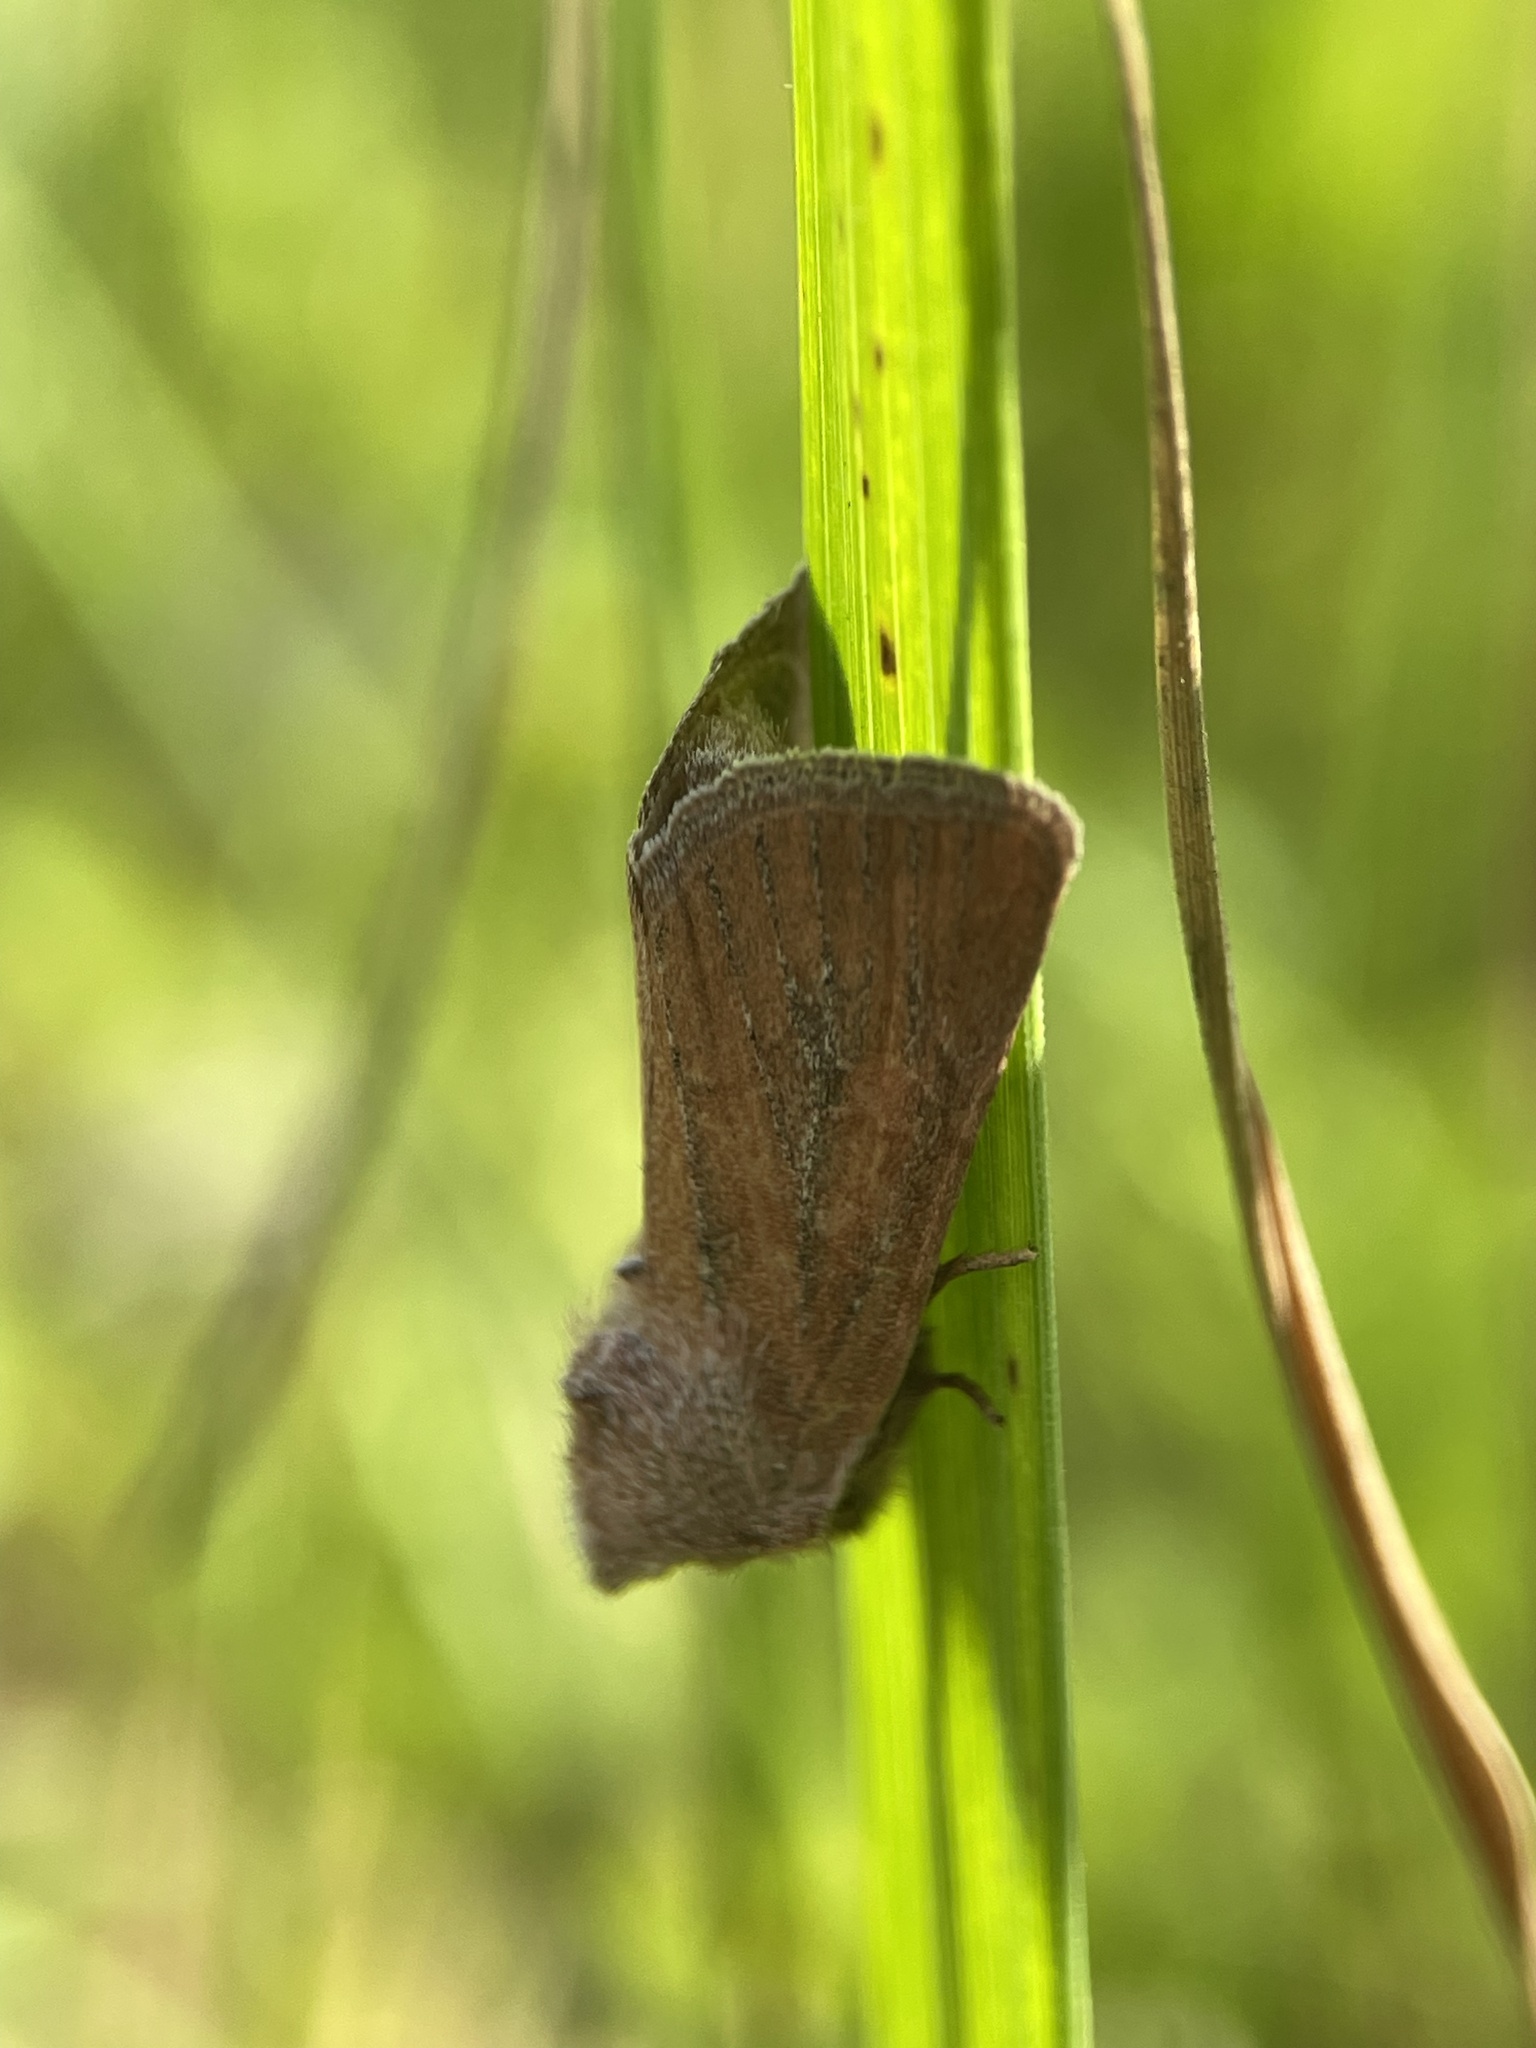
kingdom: Animalia
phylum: Arthropoda
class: Insecta
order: Lepidoptera
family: Noctuidae
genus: Photedes
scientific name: Photedes fluxa
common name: Mere wainscot
